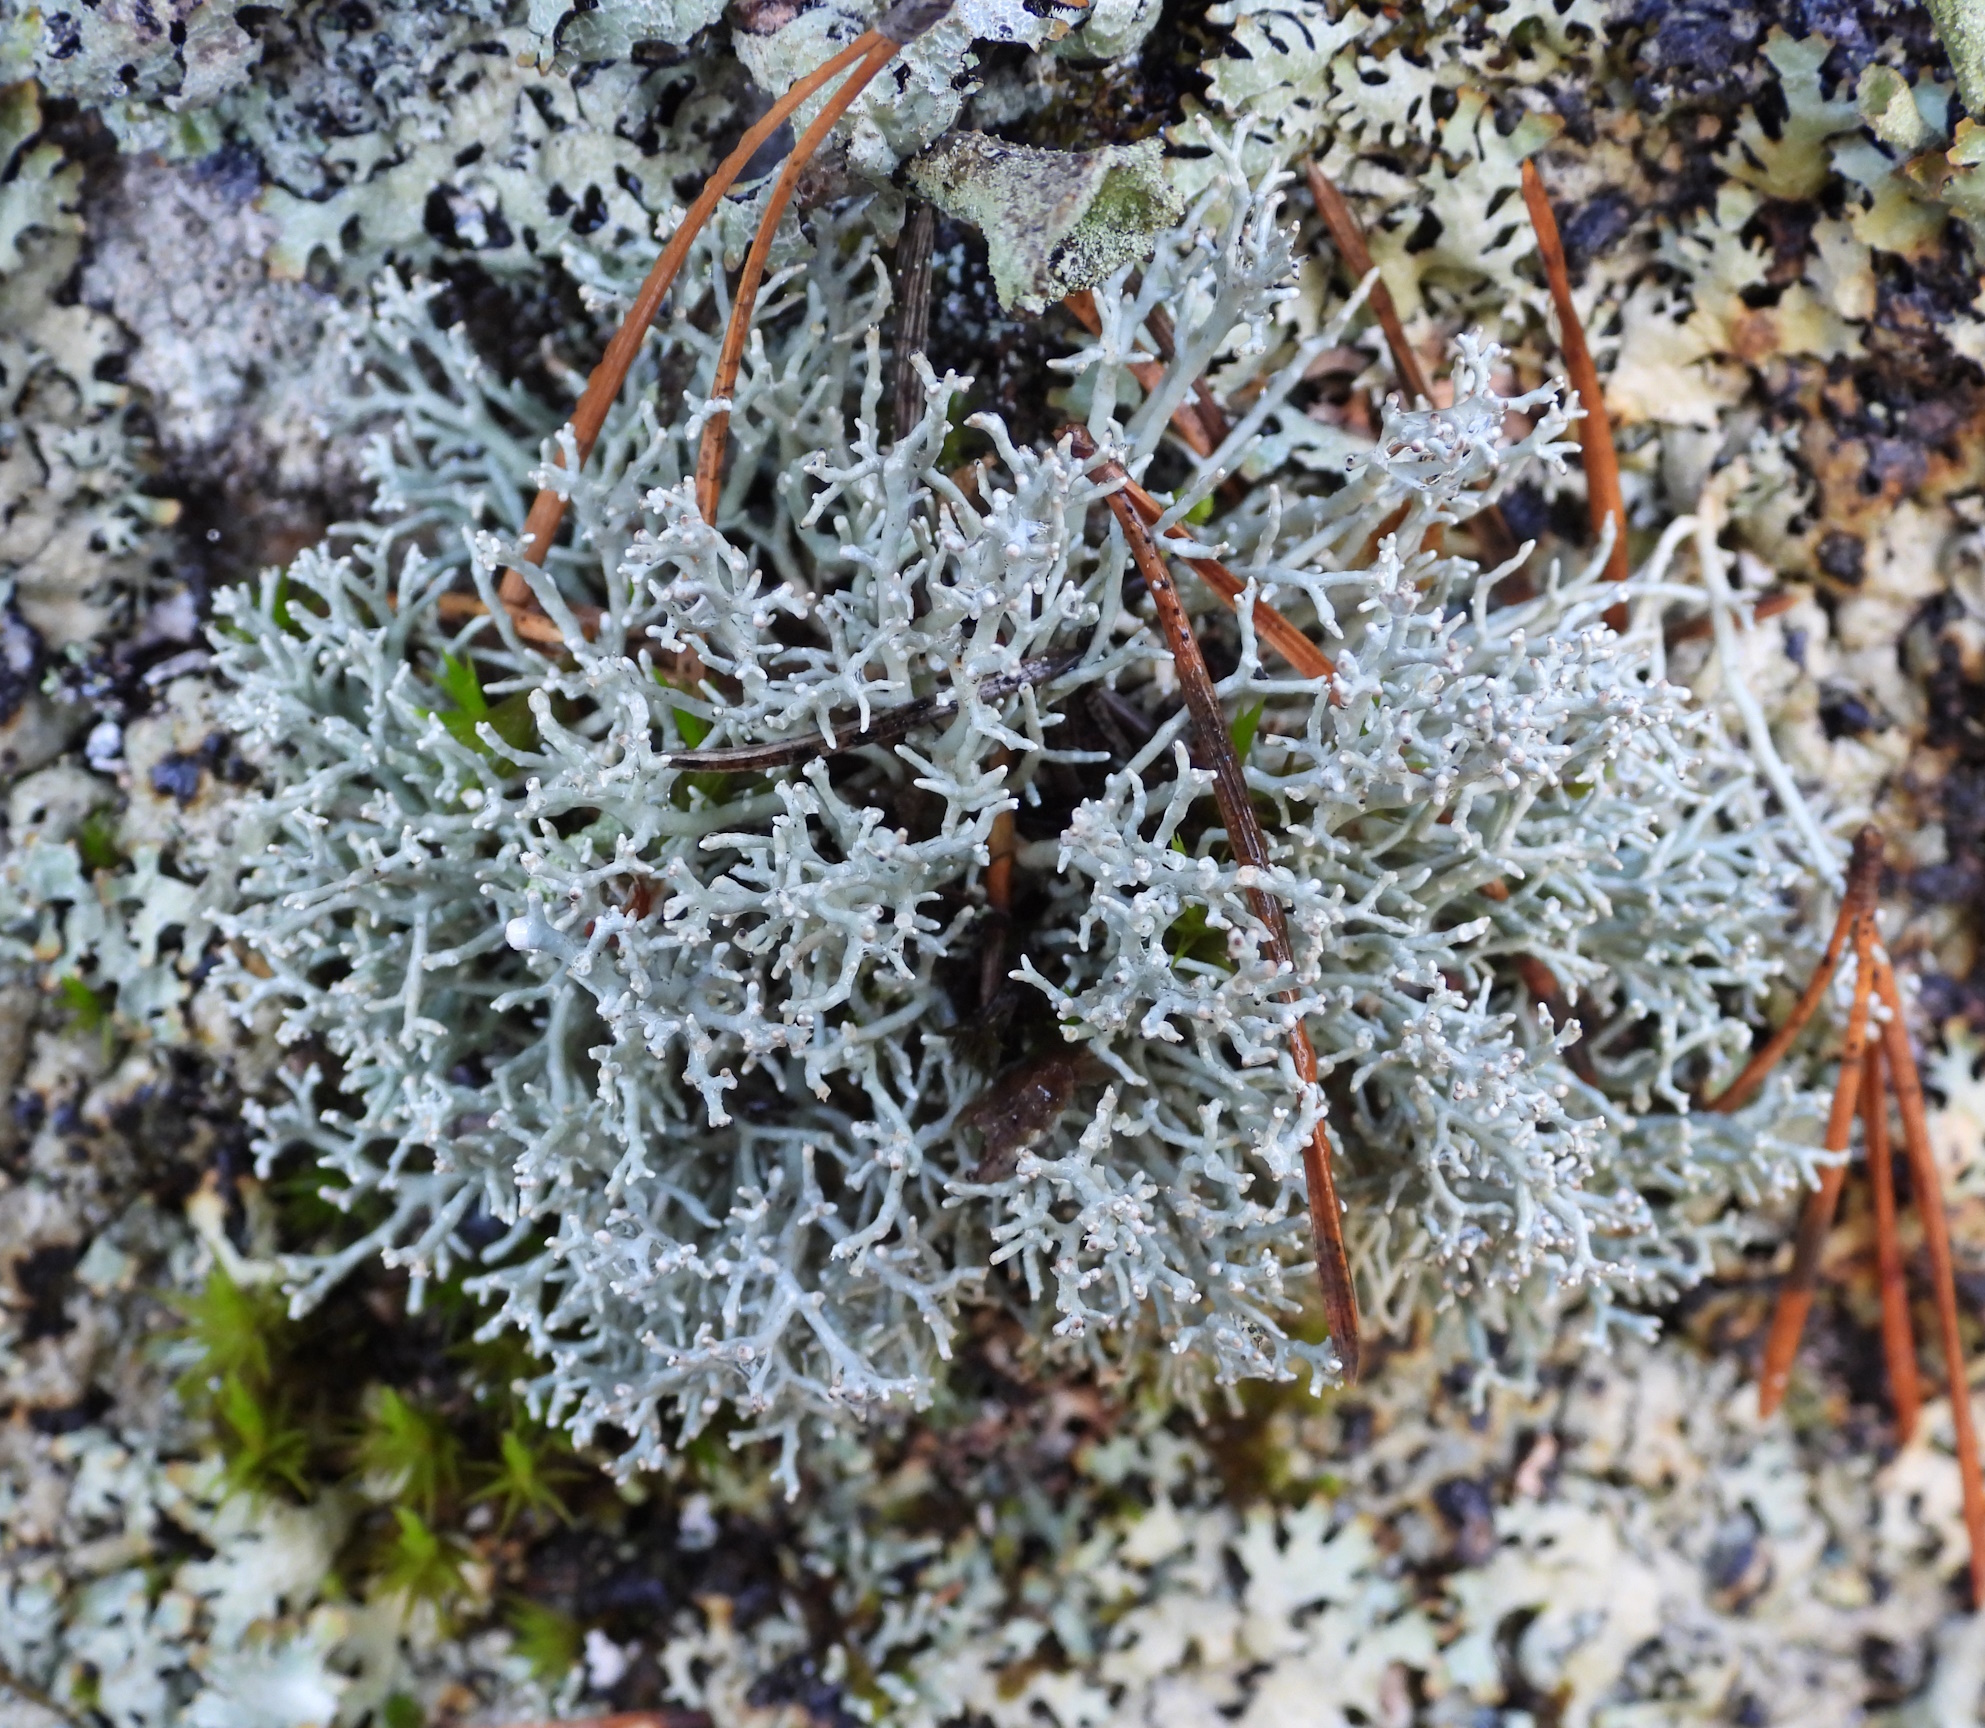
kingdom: Fungi
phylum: Ascomycota
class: Lecanoromycetes
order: Lecanorales
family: Sphaerophoraceae
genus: Sphaerophorus
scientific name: Sphaerophorus fragilis
